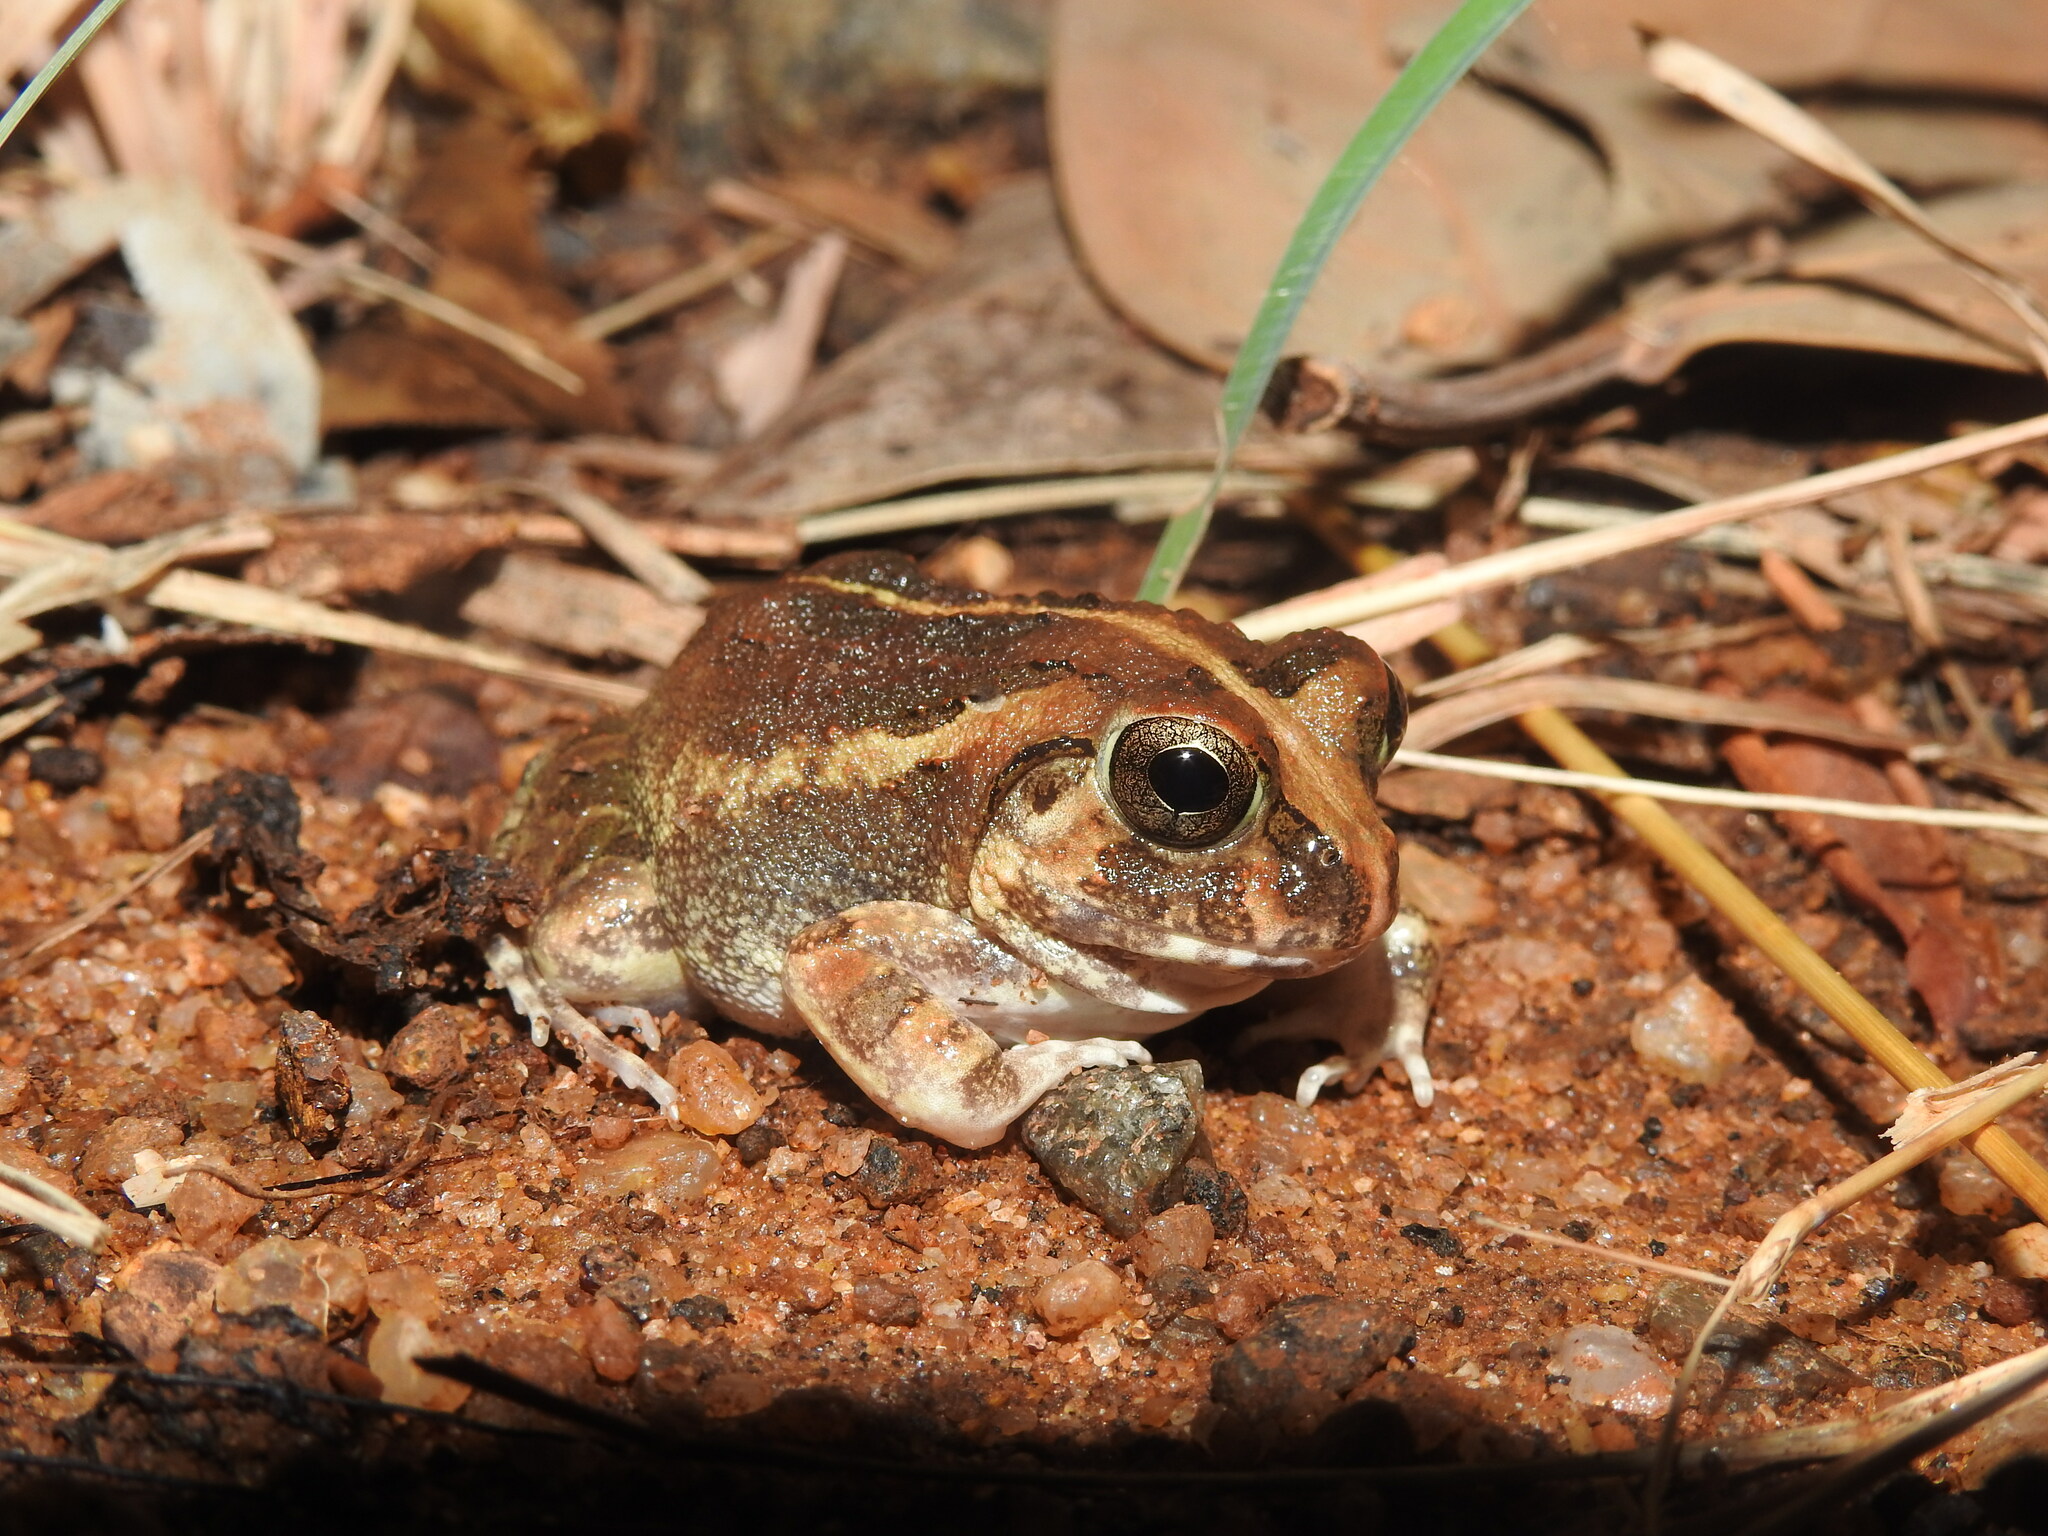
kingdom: Animalia
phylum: Chordata
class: Amphibia
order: Anura
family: Dicroglossidae
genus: Sphaerotheca
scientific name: Sphaerotheca pluvialis
